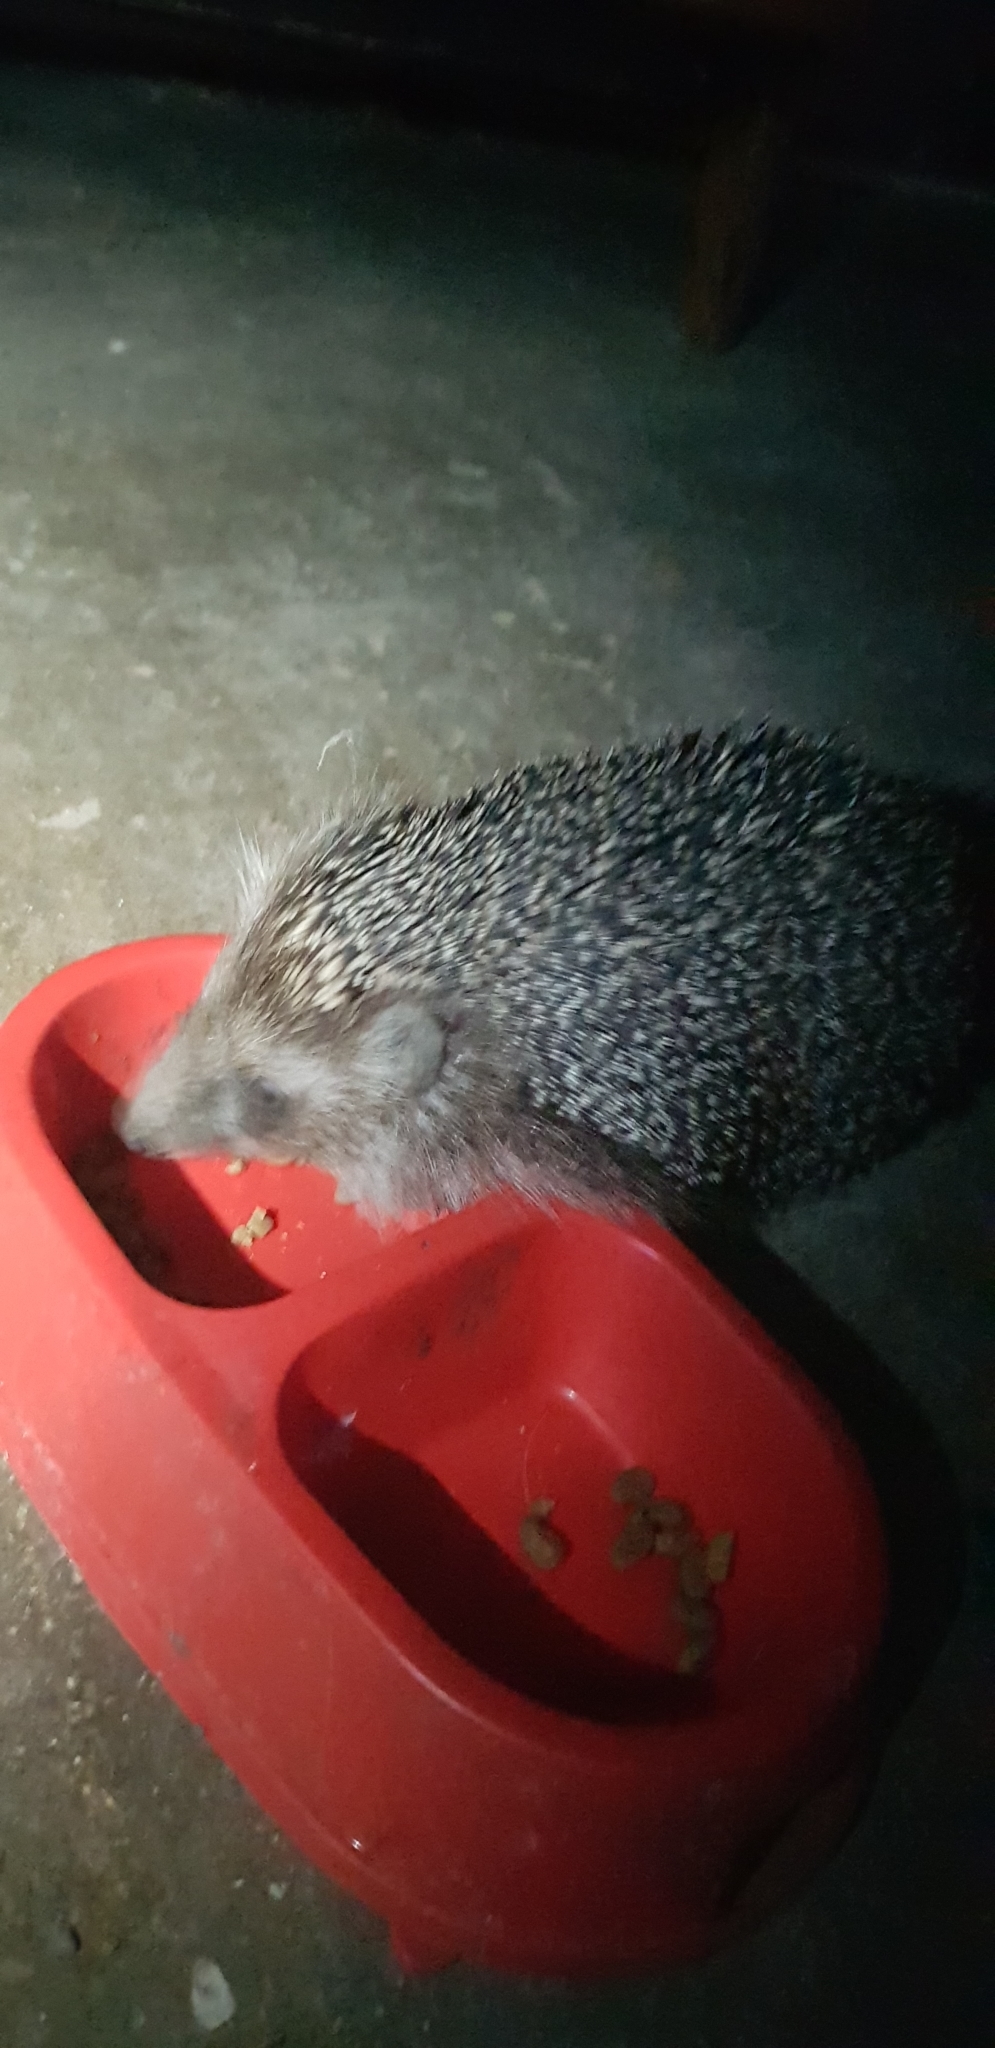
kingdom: Animalia
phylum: Chordata
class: Mammalia
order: Erinaceomorpha
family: Erinaceidae
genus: Erinaceus
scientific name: Erinaceus roumanicus
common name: Northern white-breasted hedgehog
